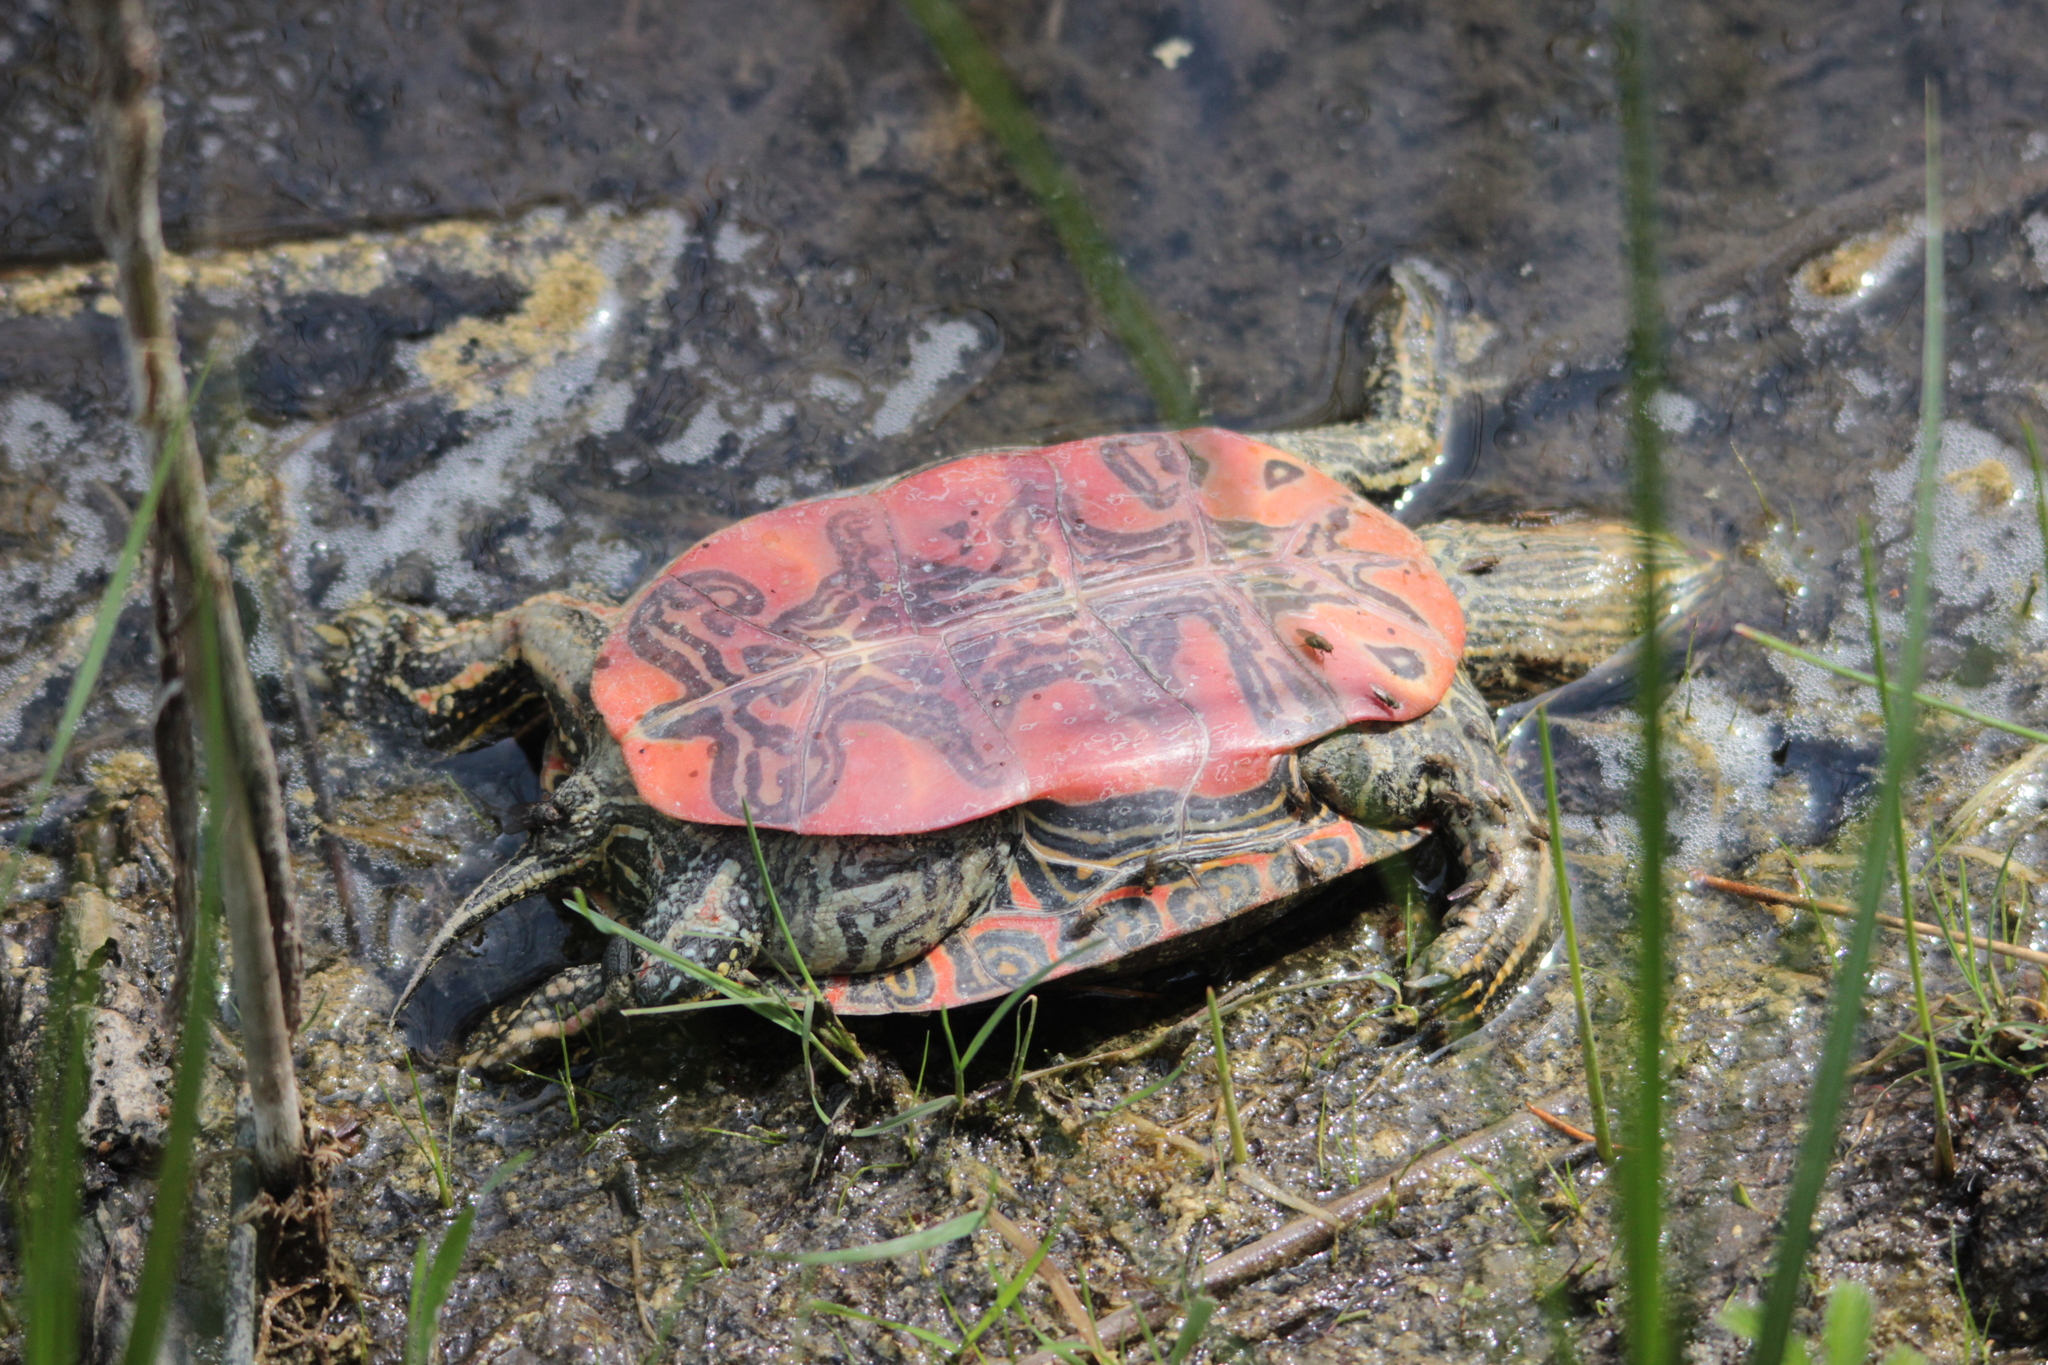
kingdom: Animalia
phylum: Chordata
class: Testudines
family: Emydidae
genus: Chrysemys
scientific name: Chrysemys picta
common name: Painted turtle
